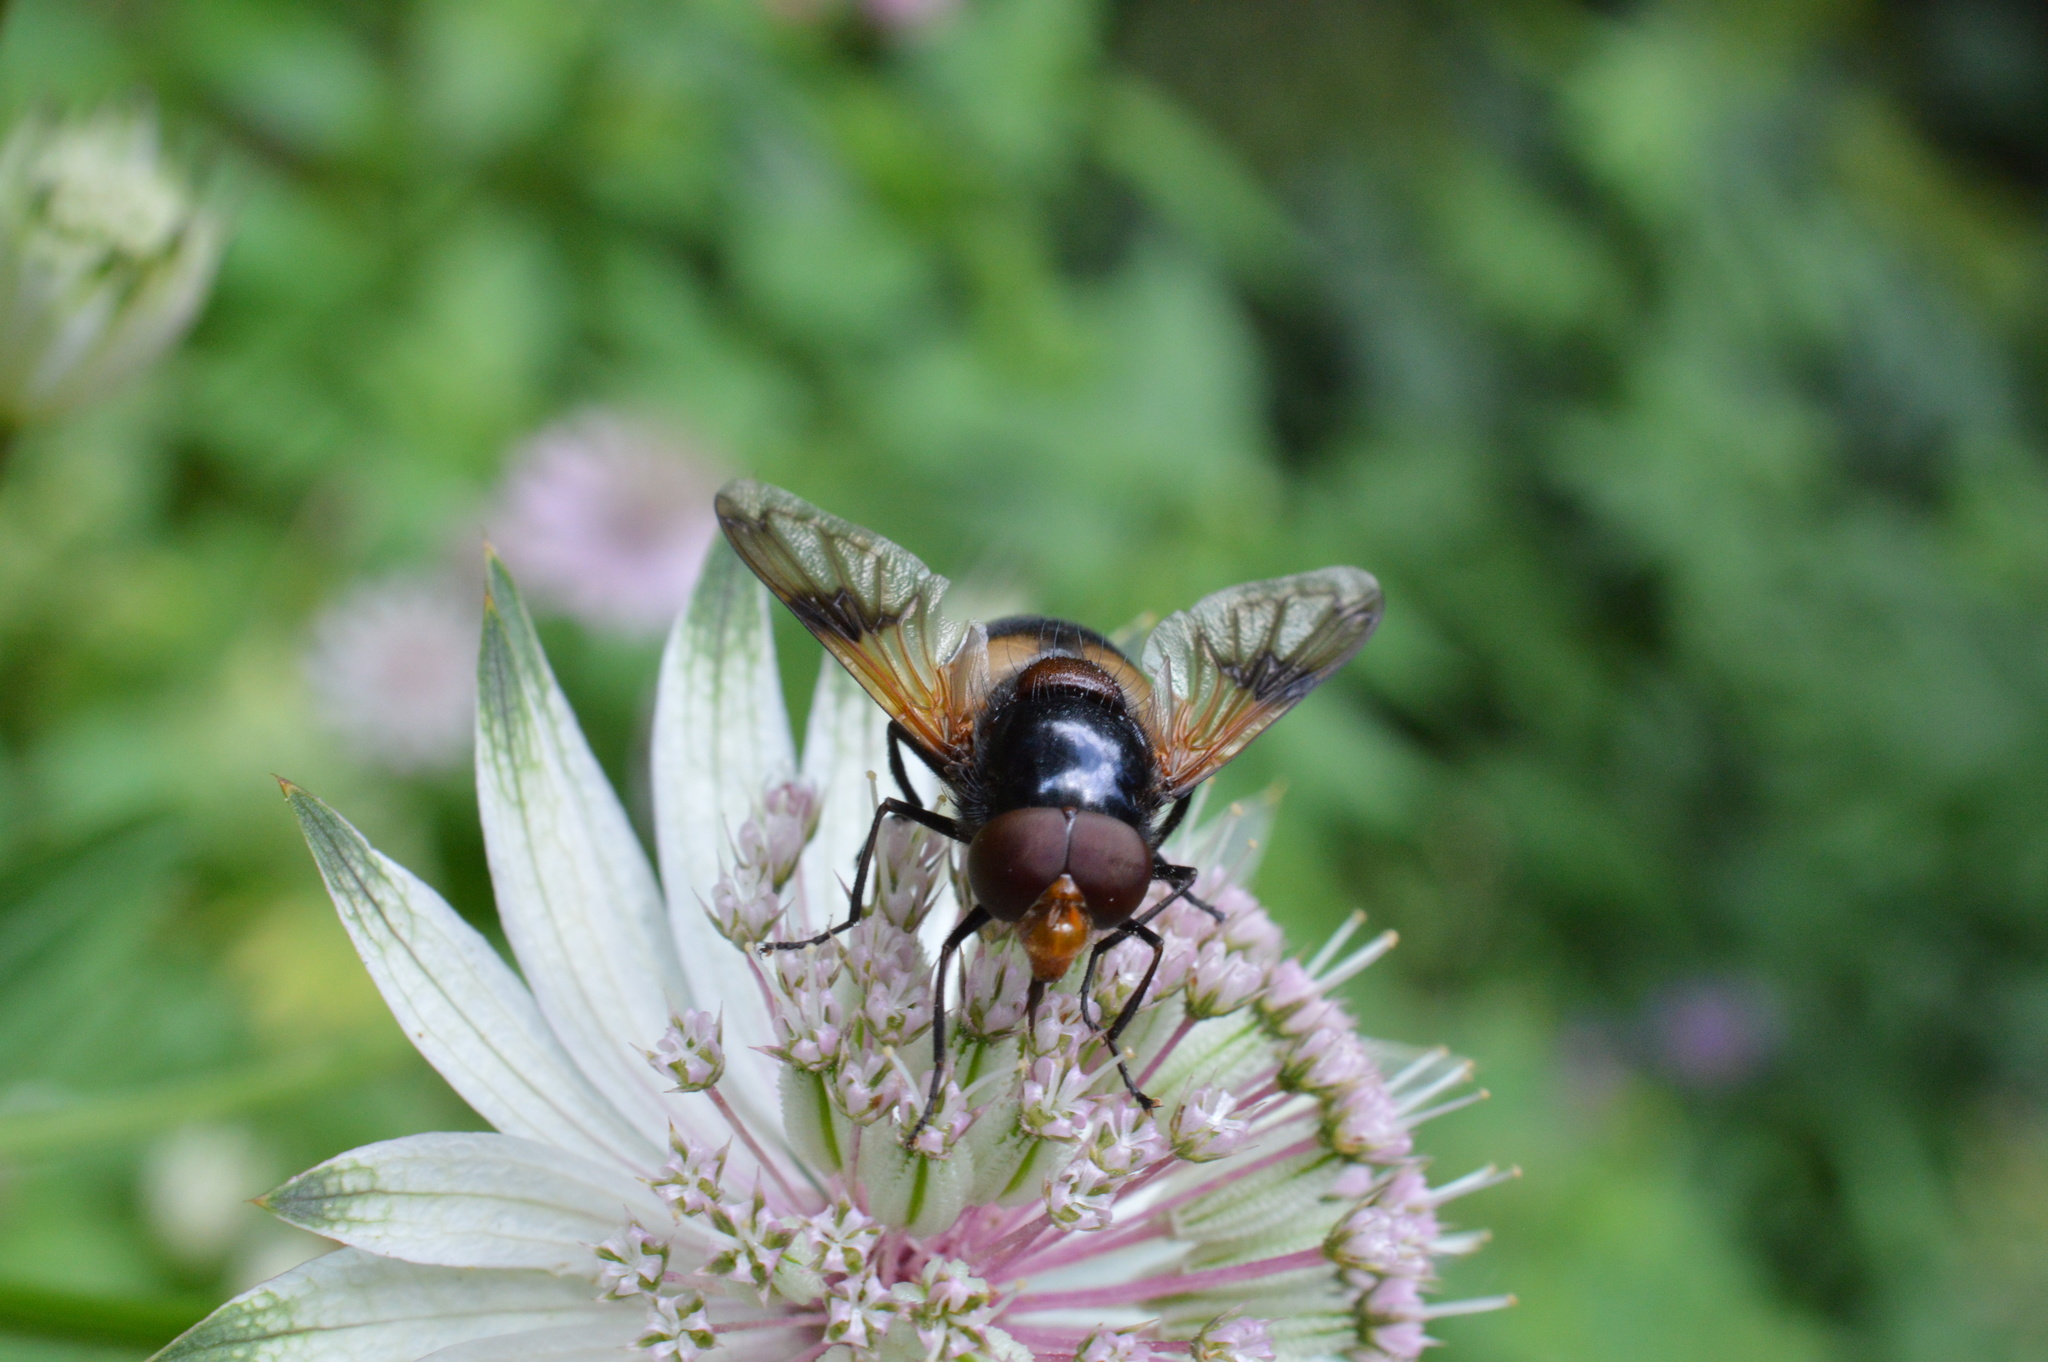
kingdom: Animalia
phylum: Arthropoda
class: Insecta
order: Diptera
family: Syrphidae
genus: Volucella
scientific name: Volucella pellucens
